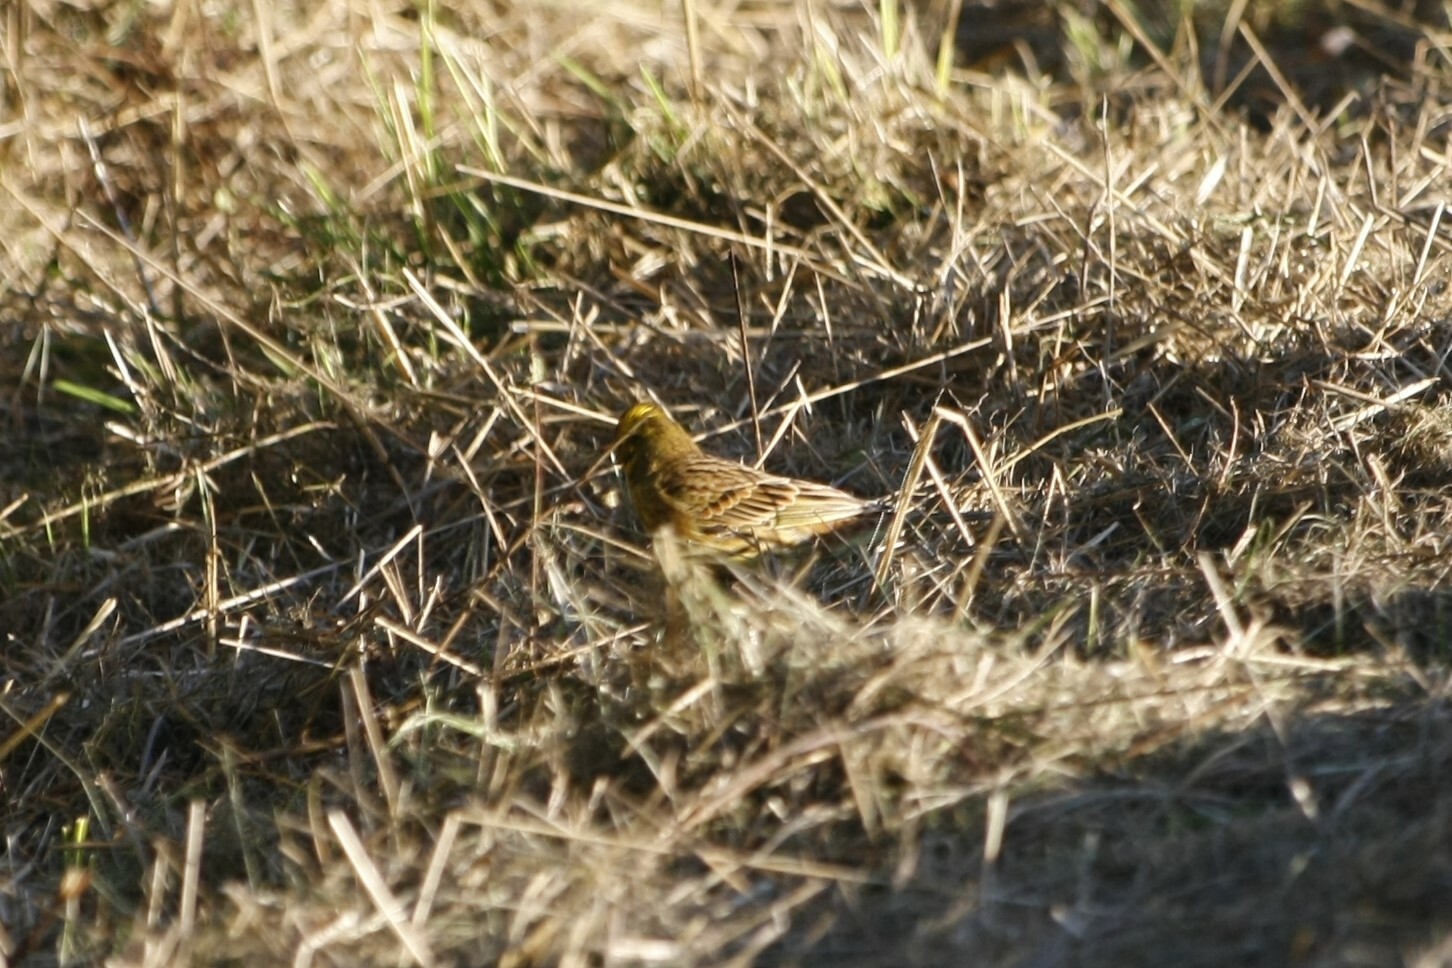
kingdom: Animalia
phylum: Chordata
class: Aves
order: Passeriformes
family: Emberizidae
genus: Emberiza
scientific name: Emberiza citrinella
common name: Yellowhammer
